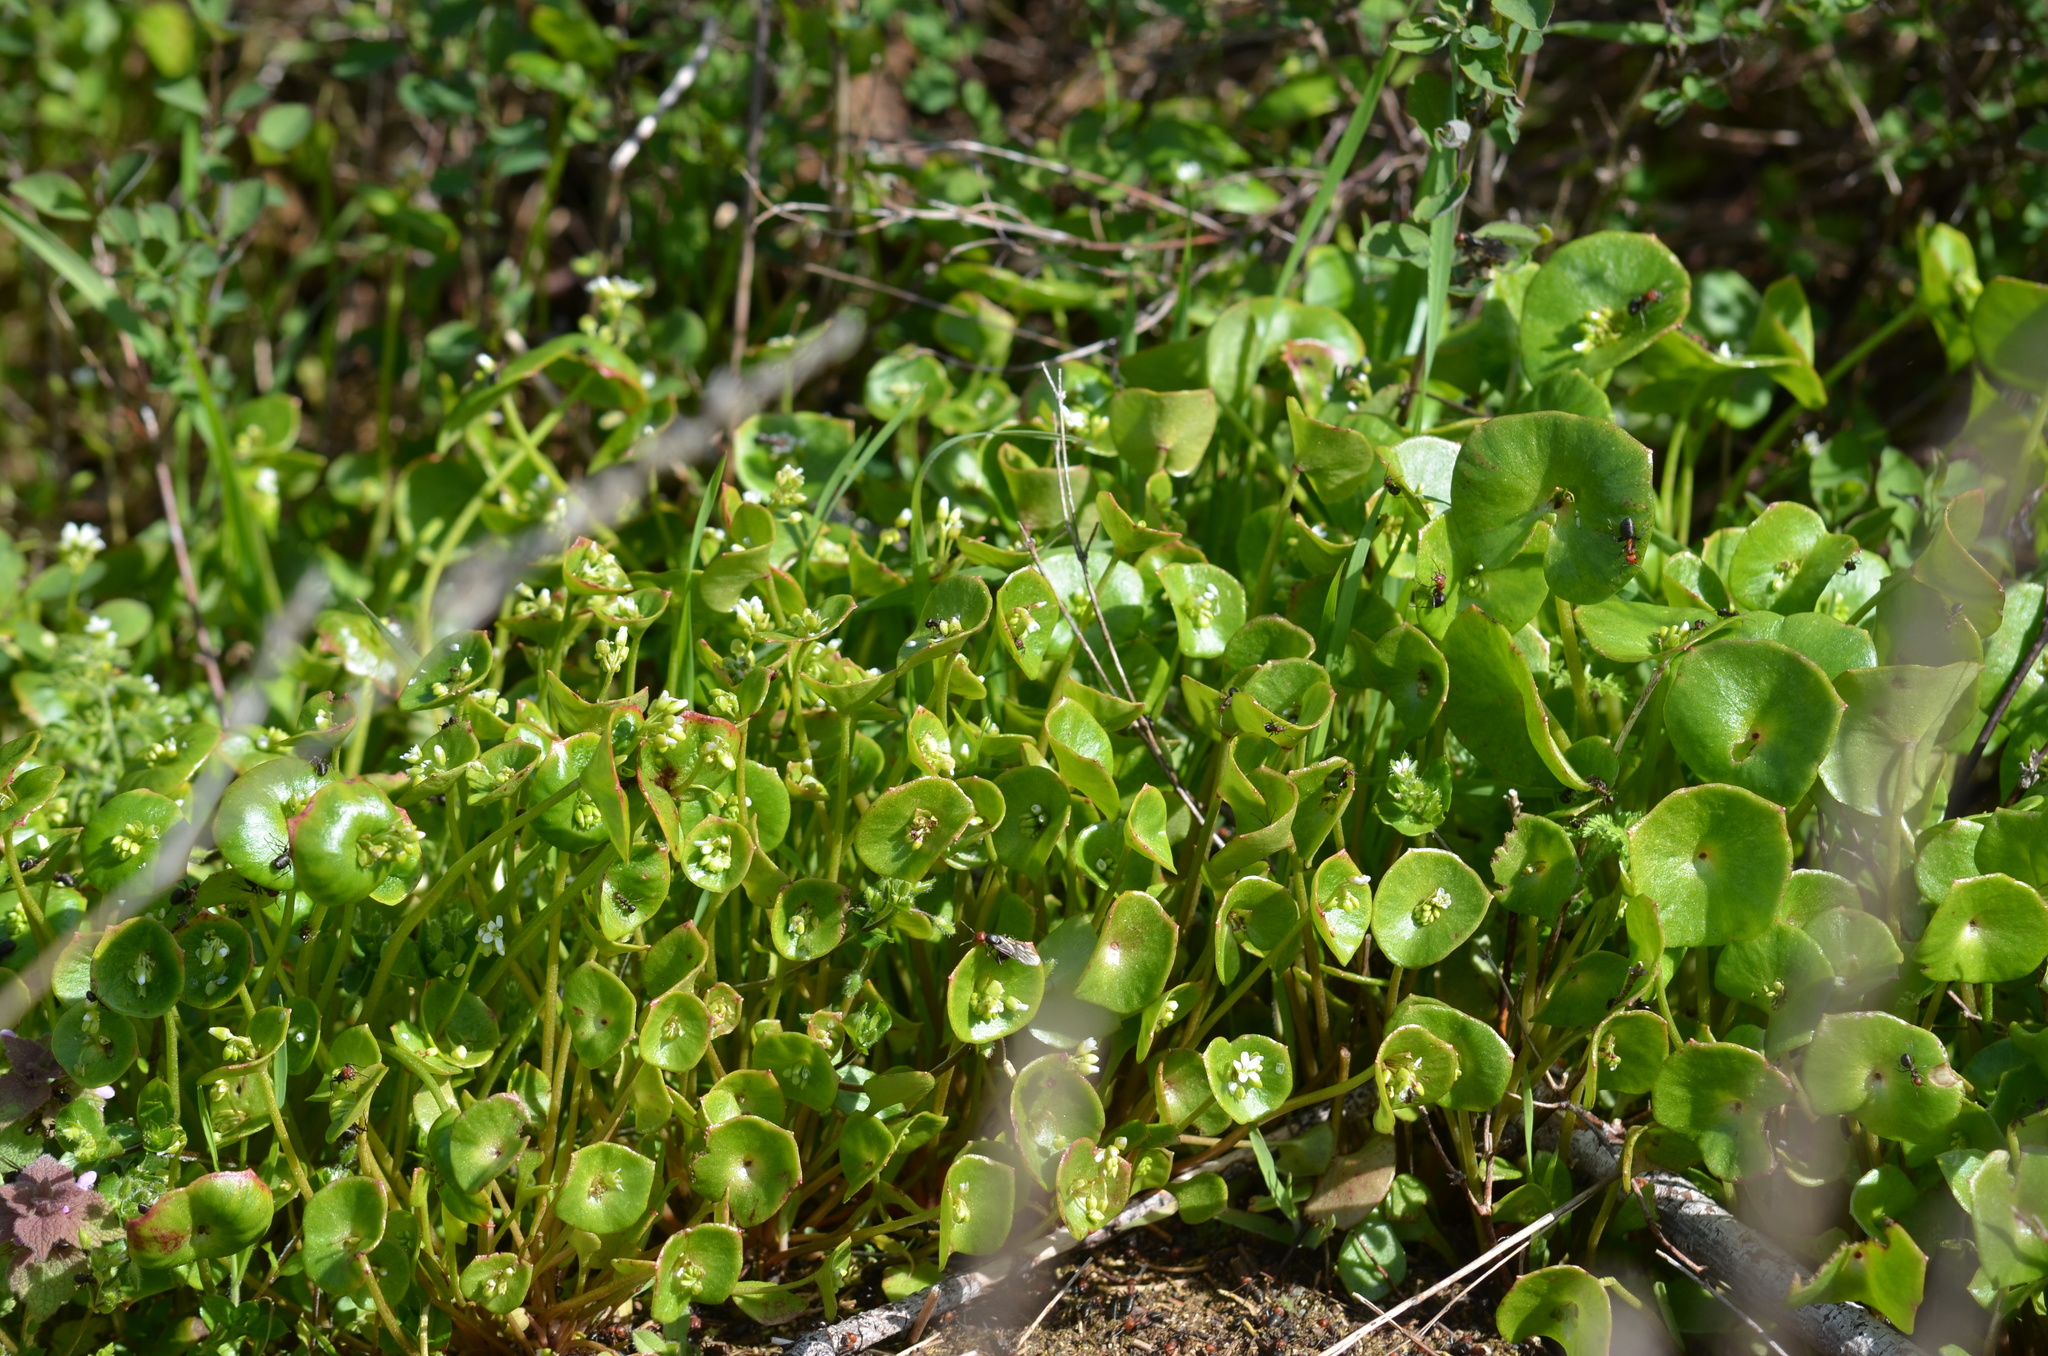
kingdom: Plantae
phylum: Tracheophyta
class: Magnoliopsida
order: Caryophyllales
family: Montiaceae
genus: Claytonia
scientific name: Claytonia perfoliata
